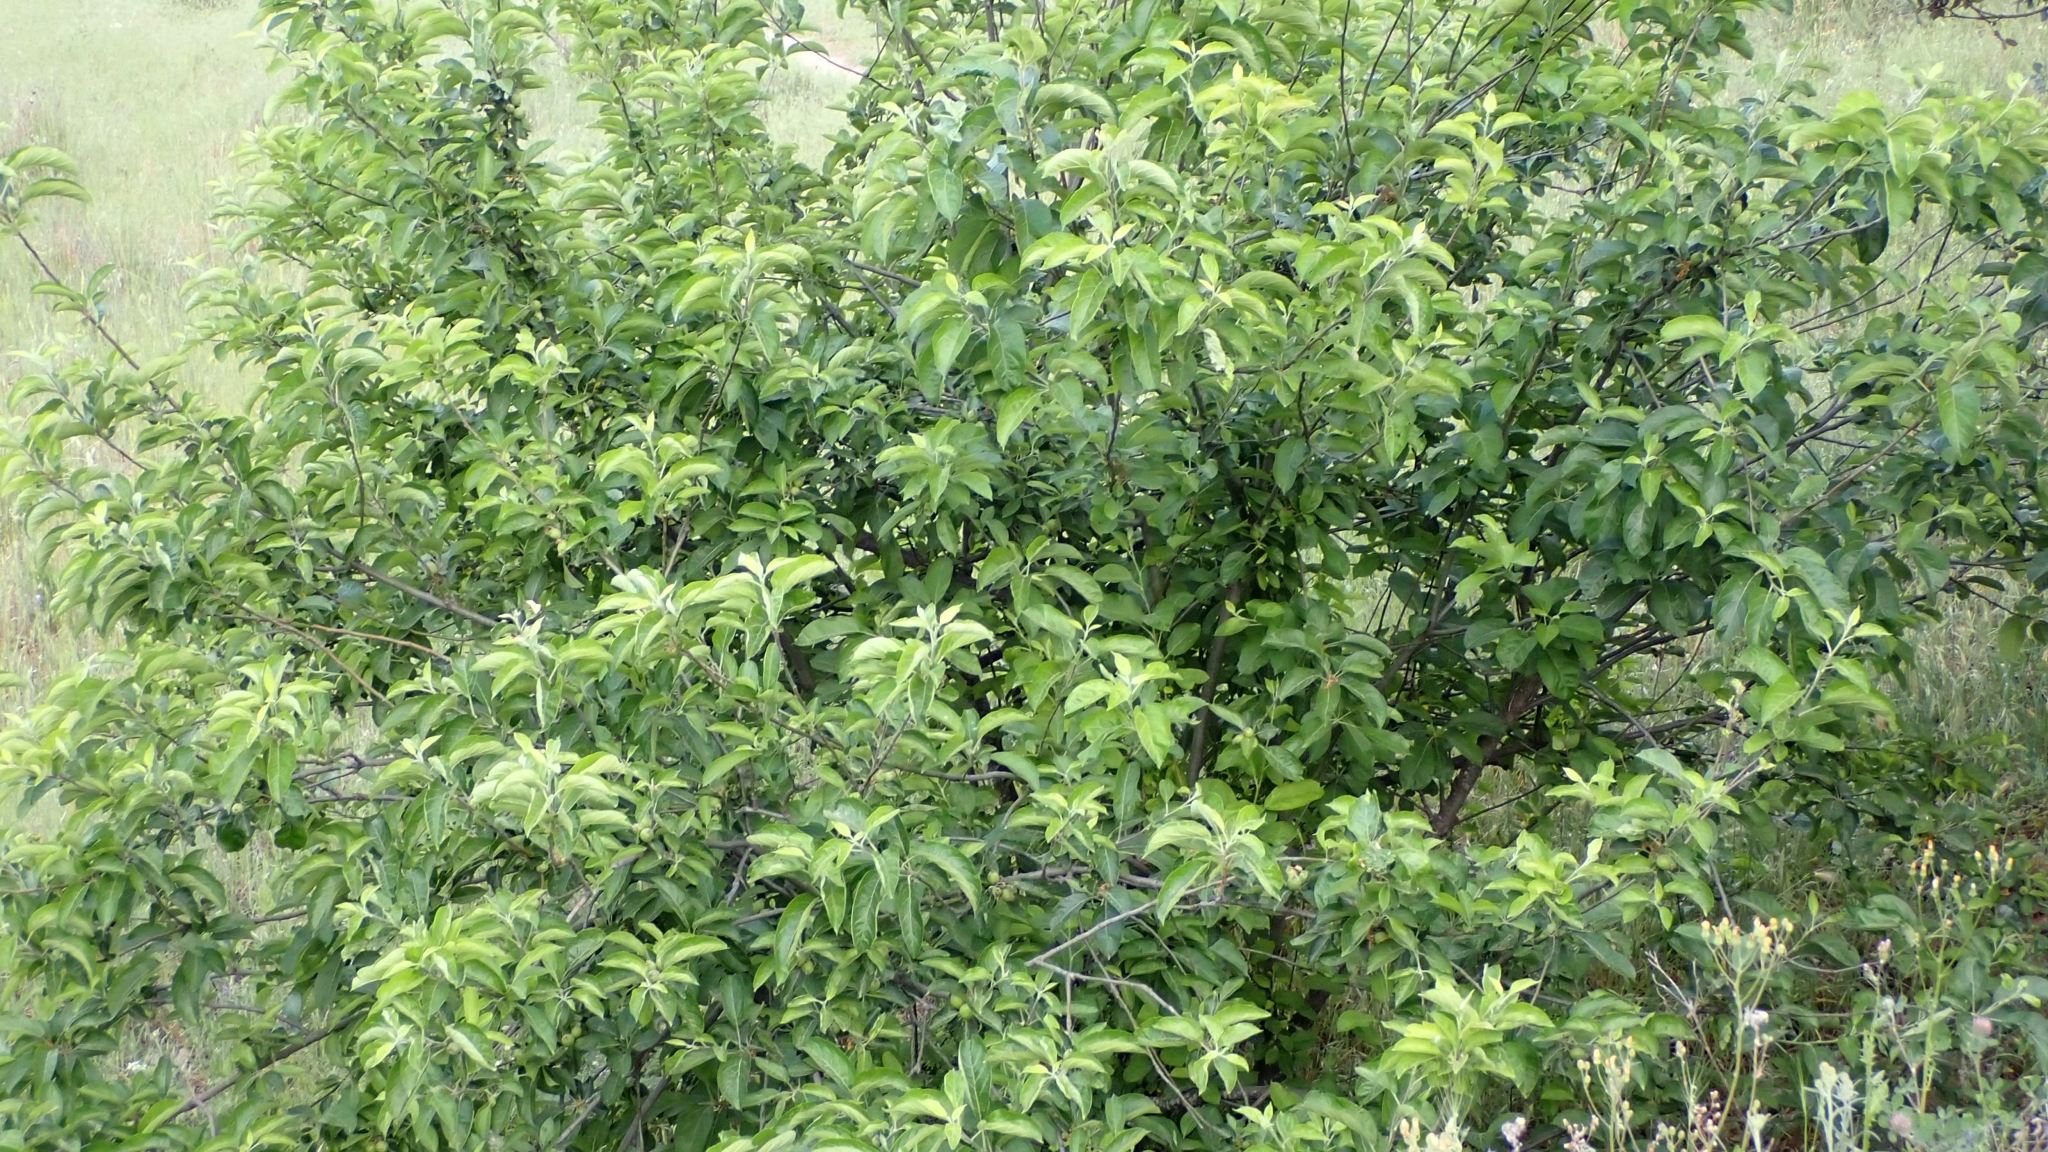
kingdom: Plantae
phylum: Tracheophyta
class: Magnoliopsida
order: Rosales
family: Rosaceae
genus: Malus
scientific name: Malus domestica
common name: Apple
